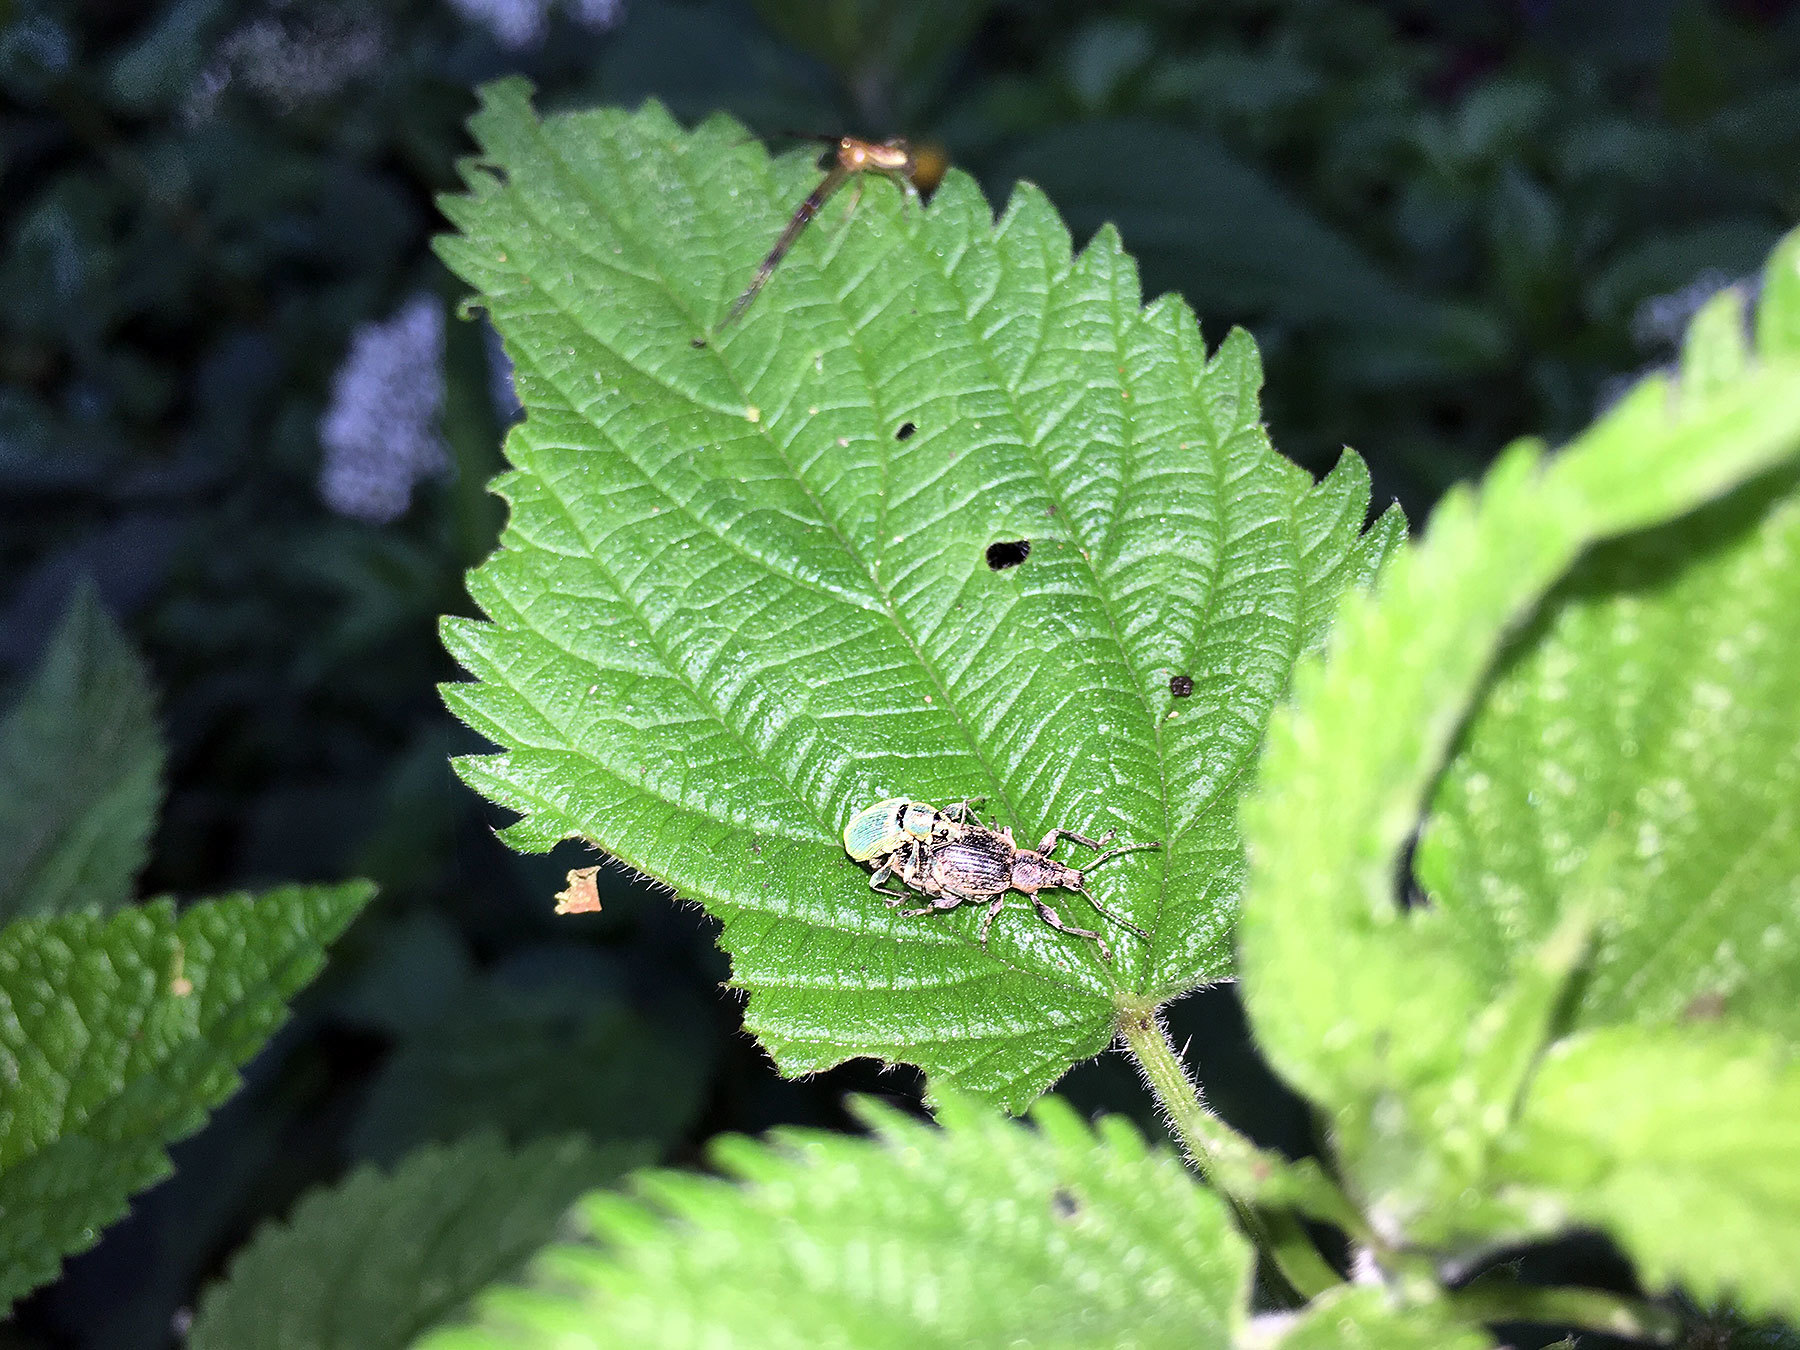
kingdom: Animalia
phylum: Arthropoda
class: Insecta
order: Coleoptera
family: Curculionidae
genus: Phyllobius
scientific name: Phyllobius pomaceus
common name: Green nettle weevil
